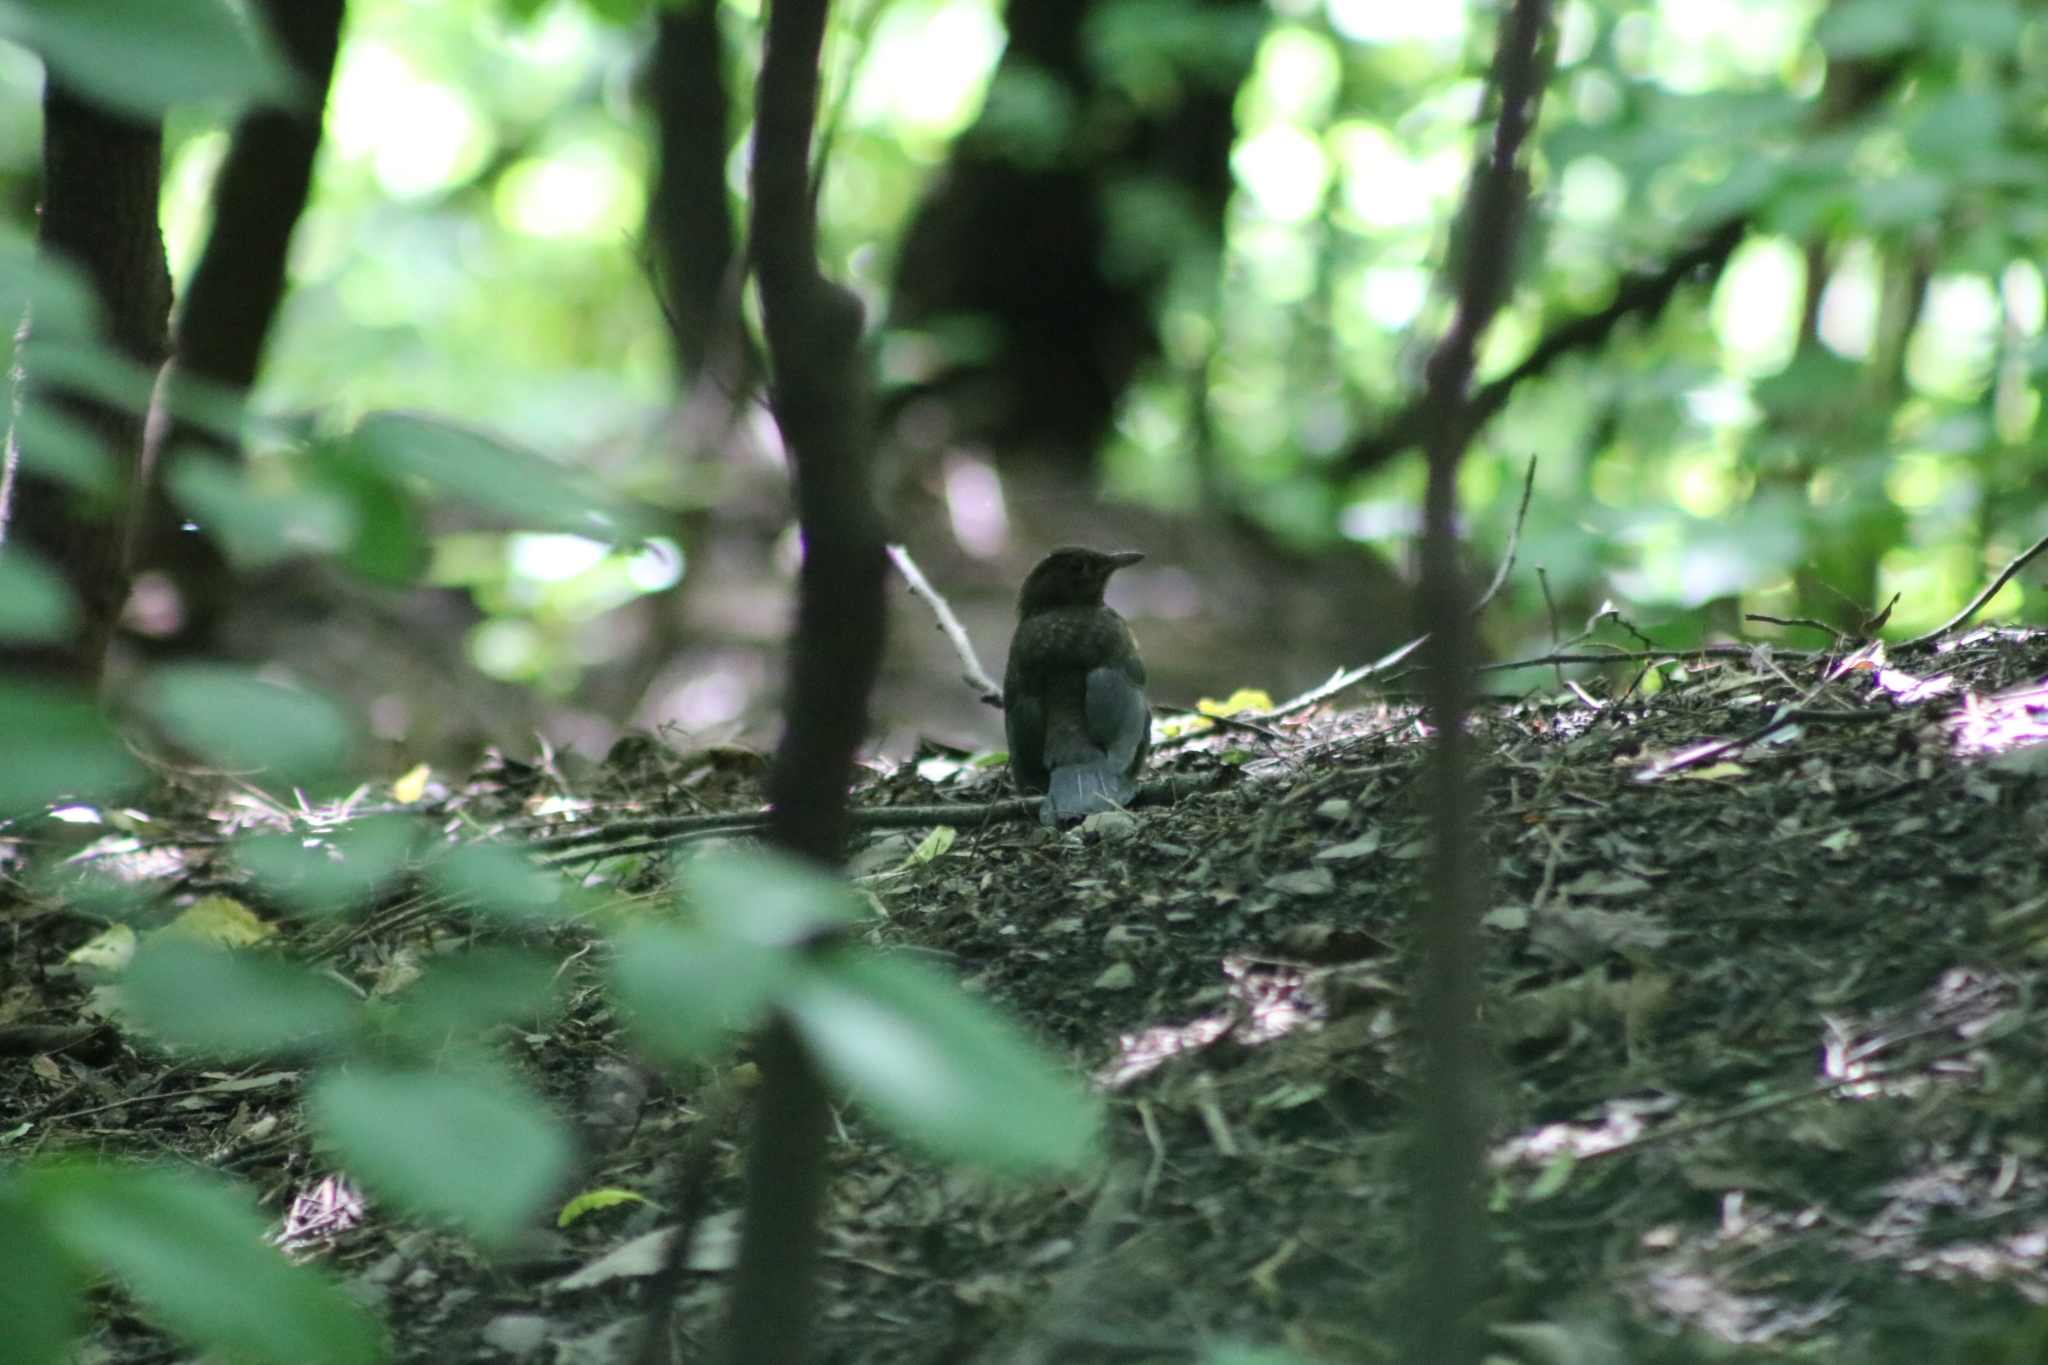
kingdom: Animalia
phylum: Chordata
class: Aves
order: Passeriformes
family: Turdidae
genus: Turdus
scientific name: Turdus merula
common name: Common blackbird
